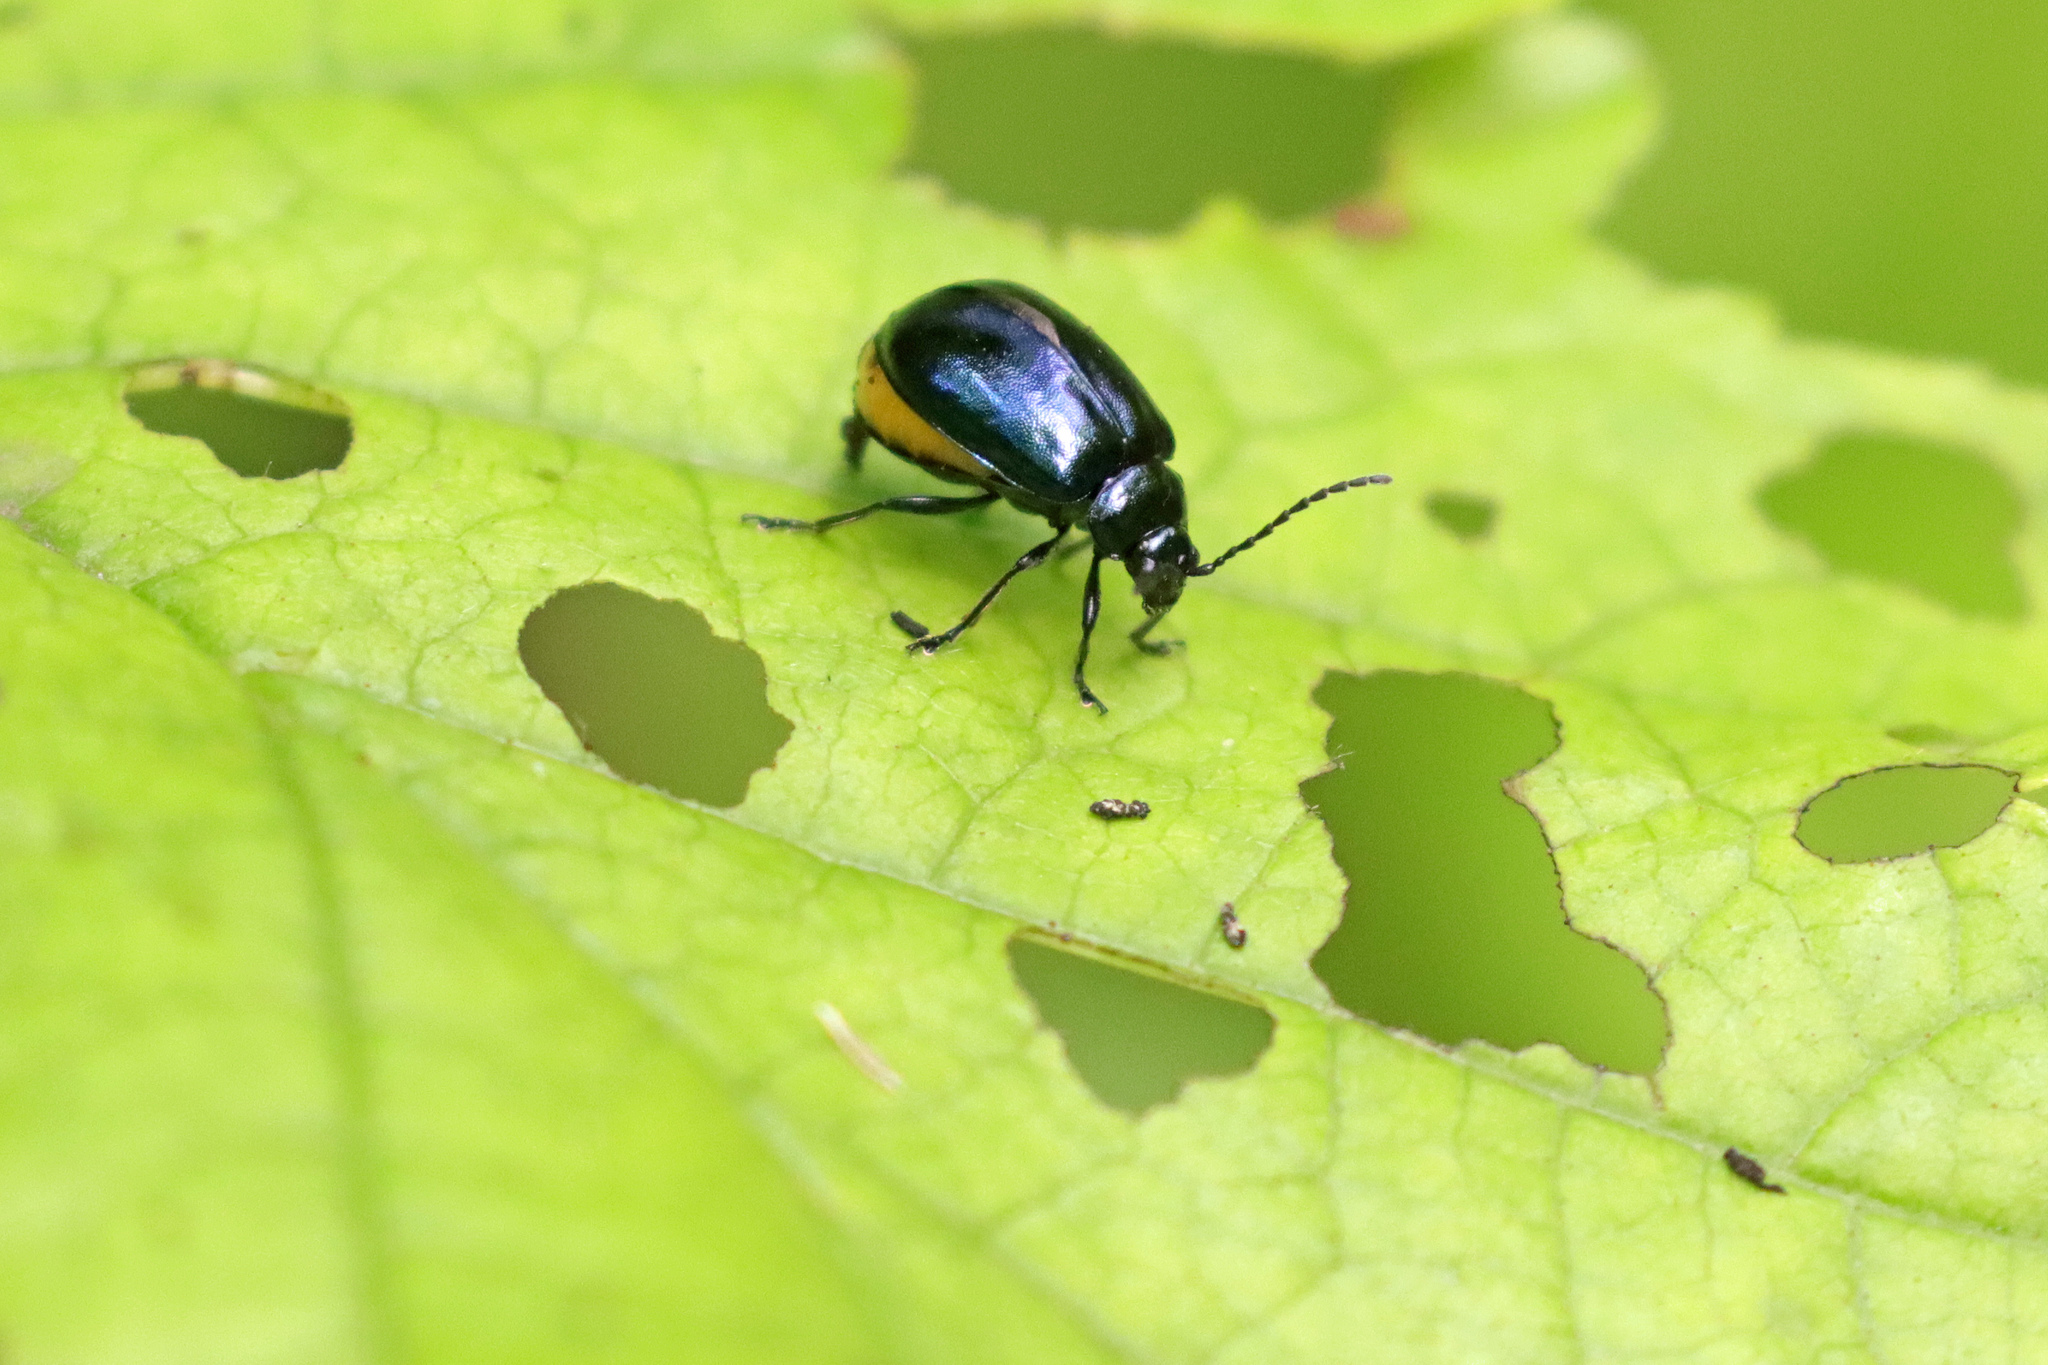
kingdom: Animalia
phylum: Arthropoda
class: Insecta
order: Coleoptera
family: Chrysomelidae
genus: Agelastica
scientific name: Agelastica alni
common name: Alder leaf beetle
